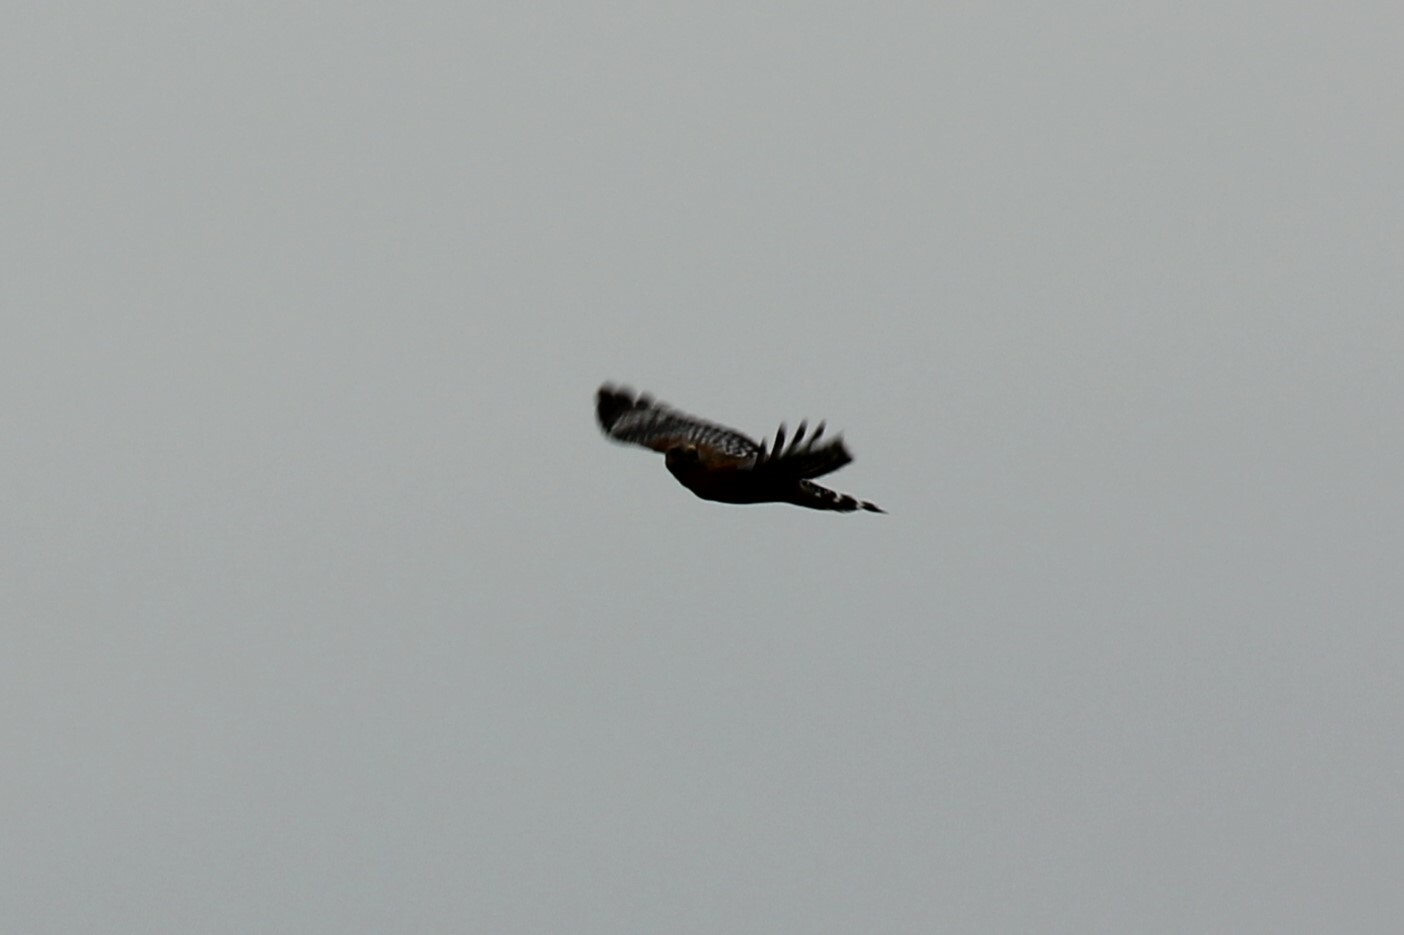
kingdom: Animalia
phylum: Chordata
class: Aves
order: Accipitriformes
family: Accipitridae
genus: Buteo
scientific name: Buteo lineatus
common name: Red-shouldered hawk
